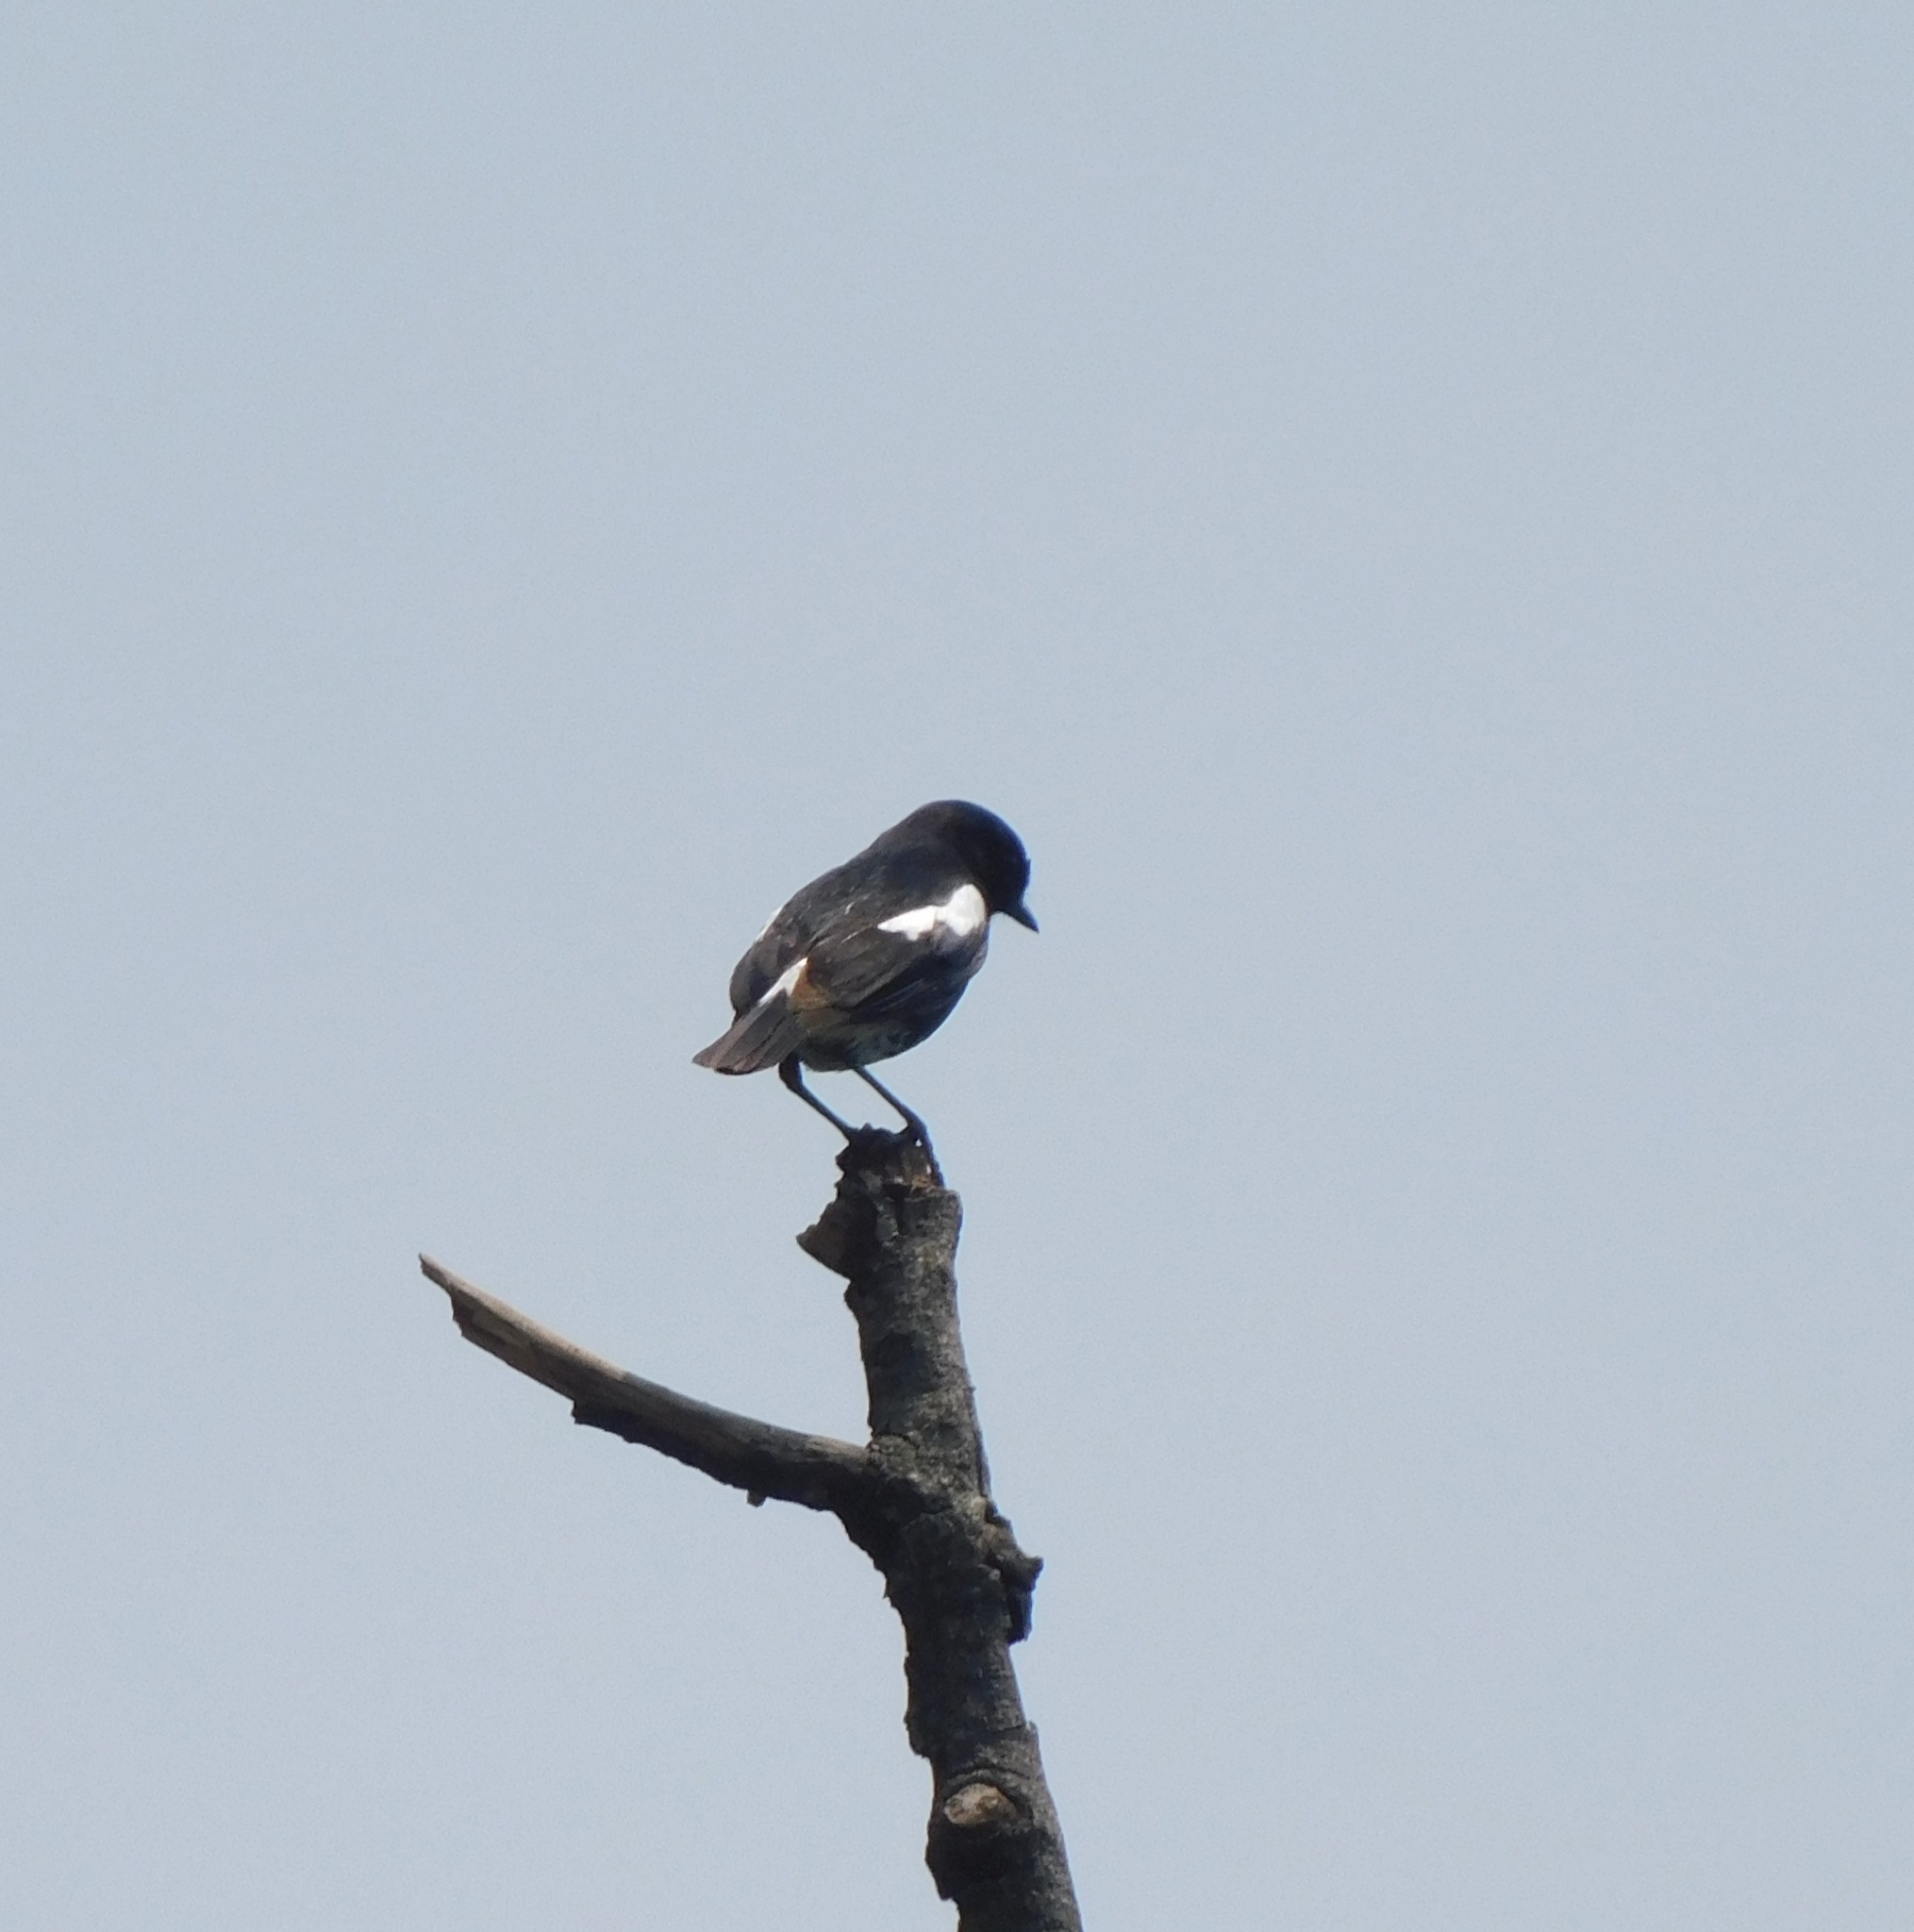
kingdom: Animalia
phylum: Chordata
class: Aves
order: Passeriformes
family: Muscicapidae
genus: Saxicola
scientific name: Saxicola caprata
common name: Pied bush chat
